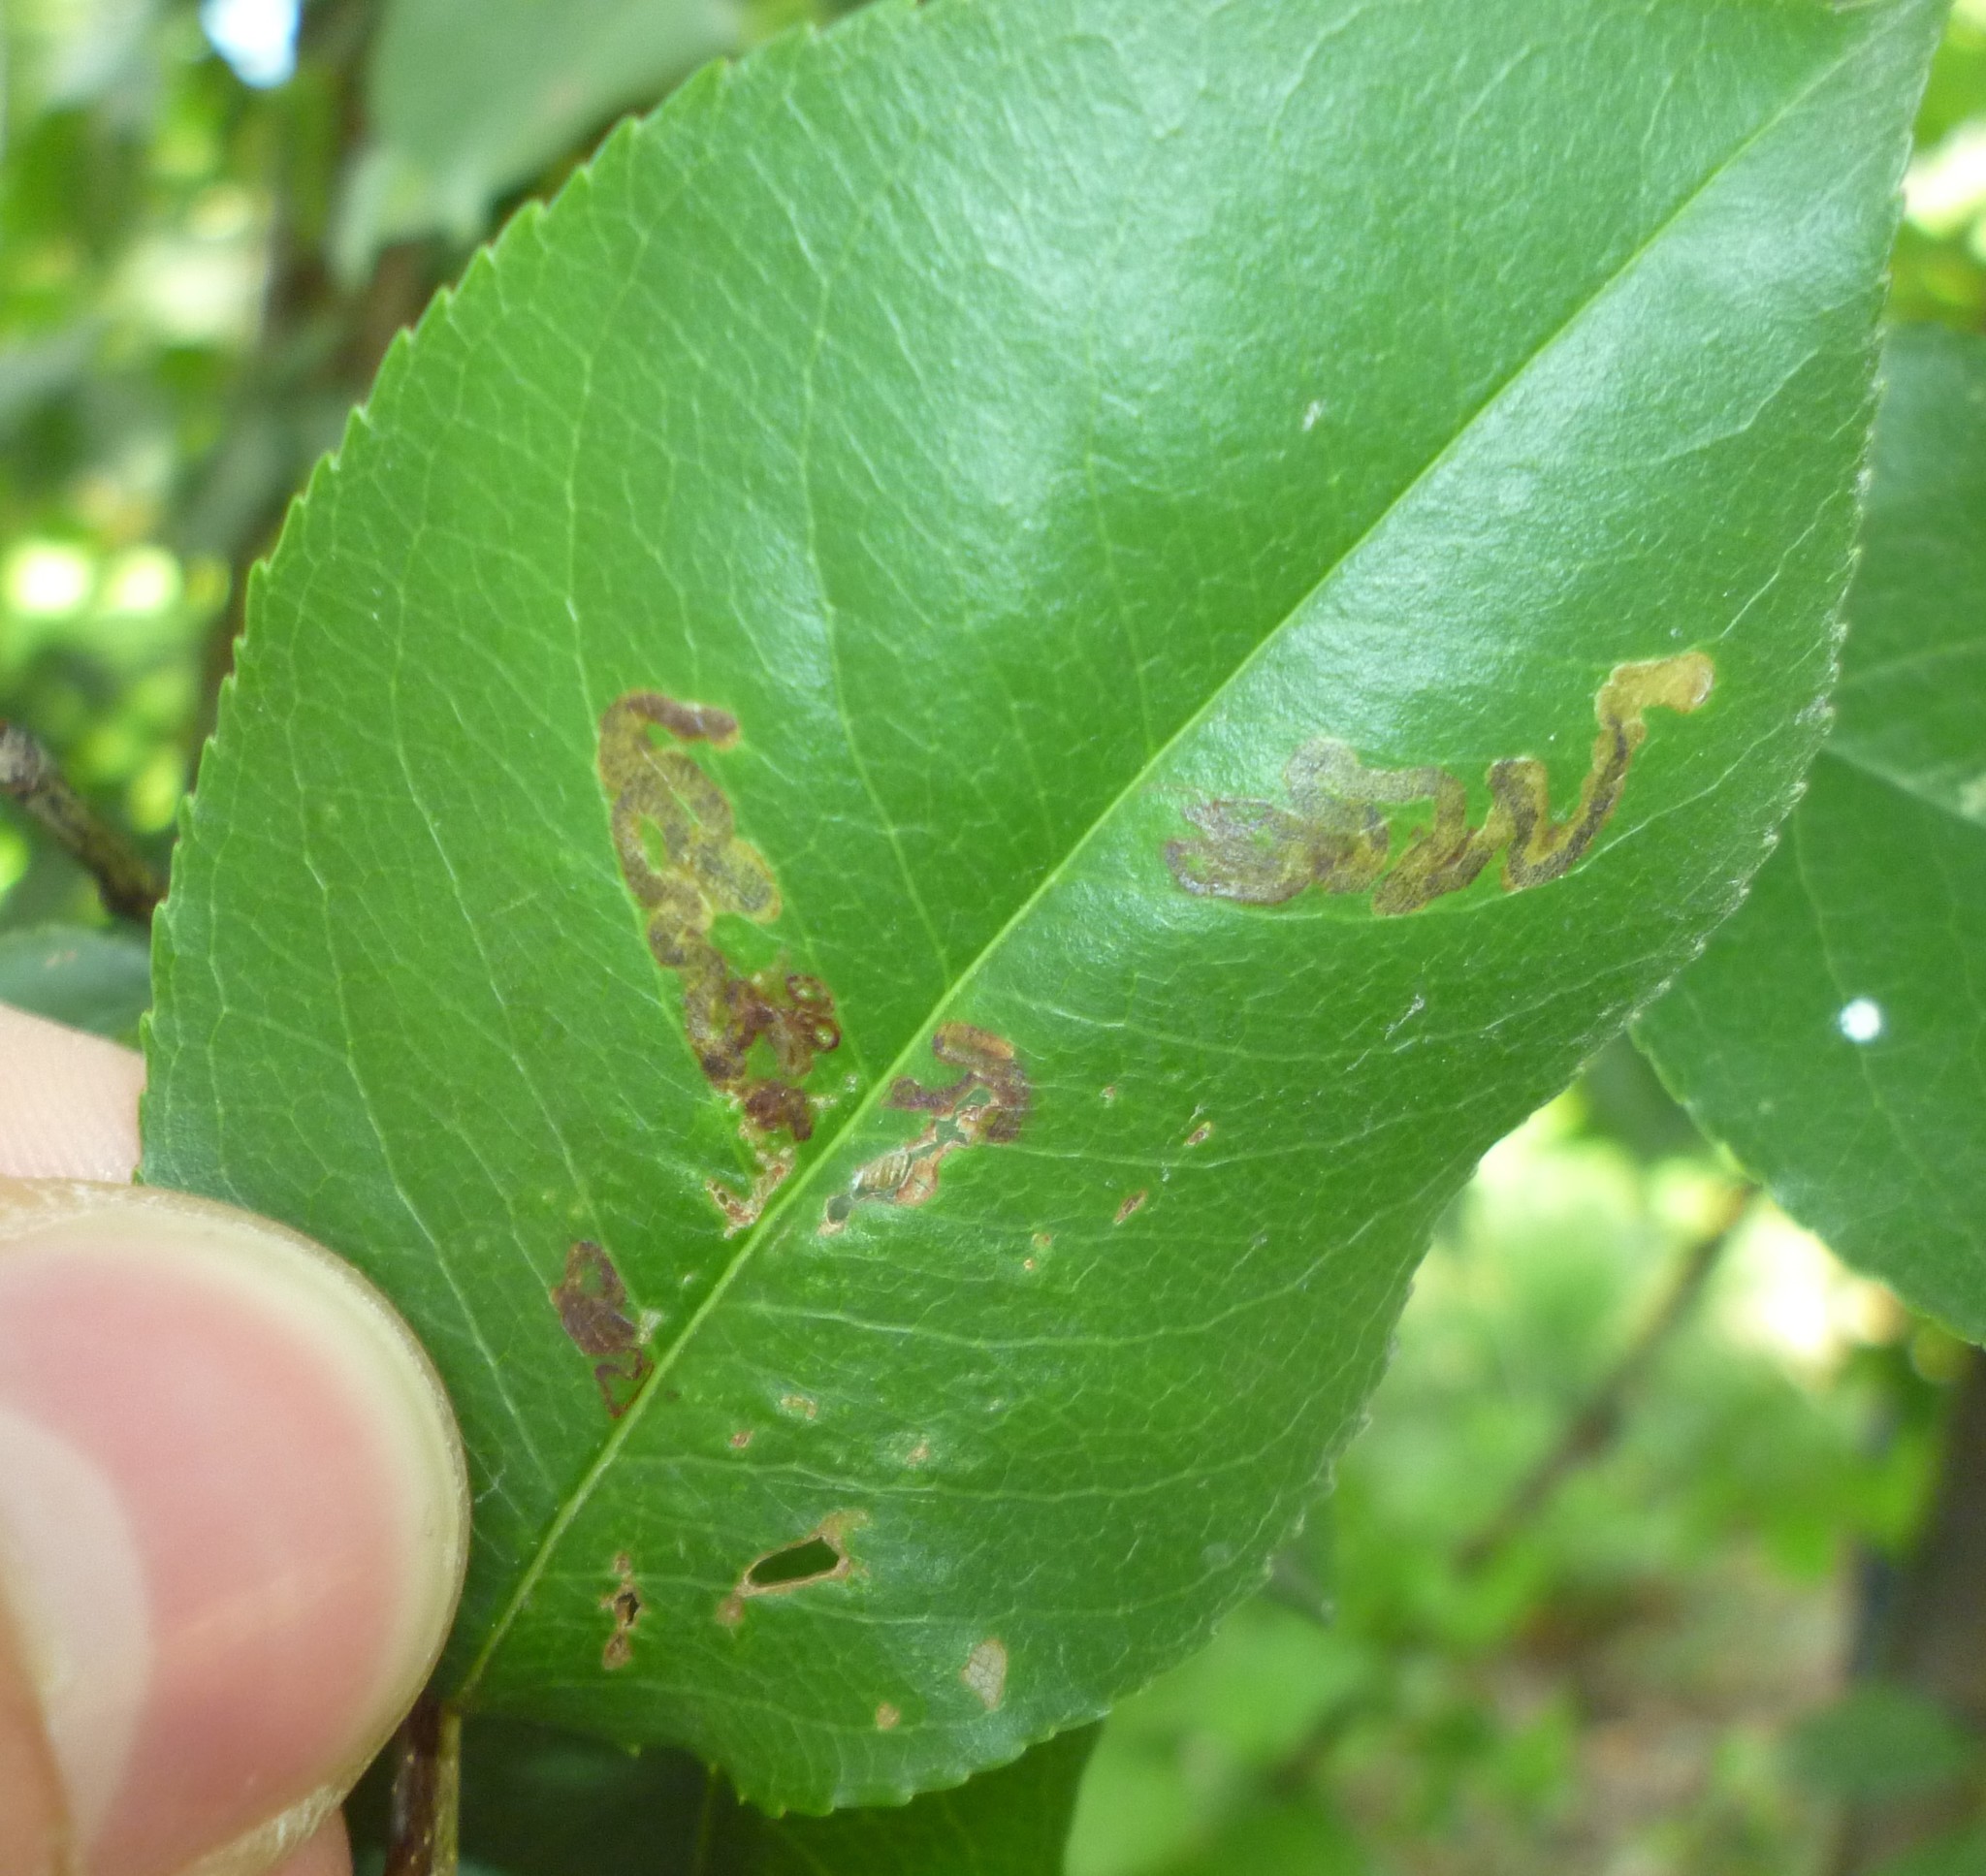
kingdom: Animalia
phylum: Arthropoda
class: Insecta
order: Lepidoptera
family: Nepticulidae
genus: Stigmella
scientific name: Stigmella prunifoliella
